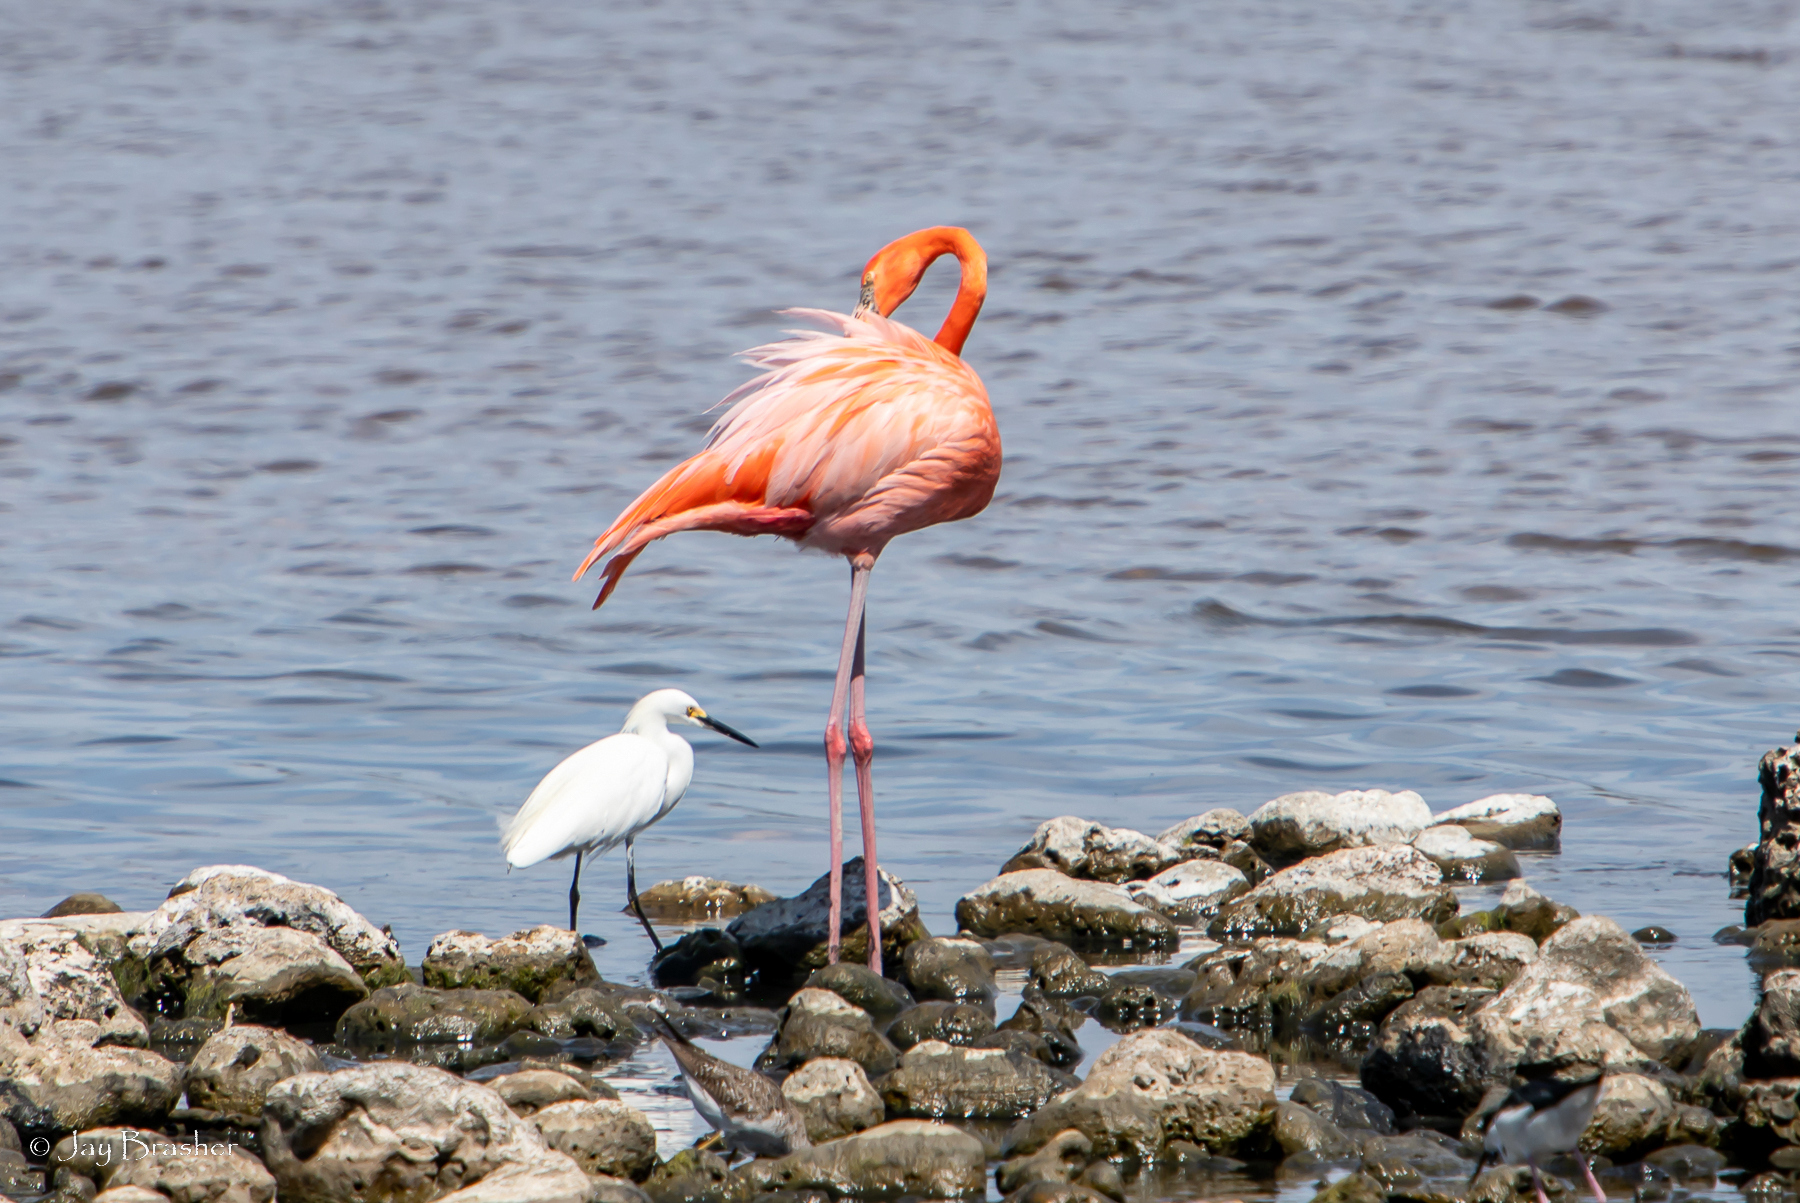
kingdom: Animalia
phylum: Chordata
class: Aves
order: Pelecaniformes
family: Ardeidae
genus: Egretta
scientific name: Egretta thula
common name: Snowy egret
